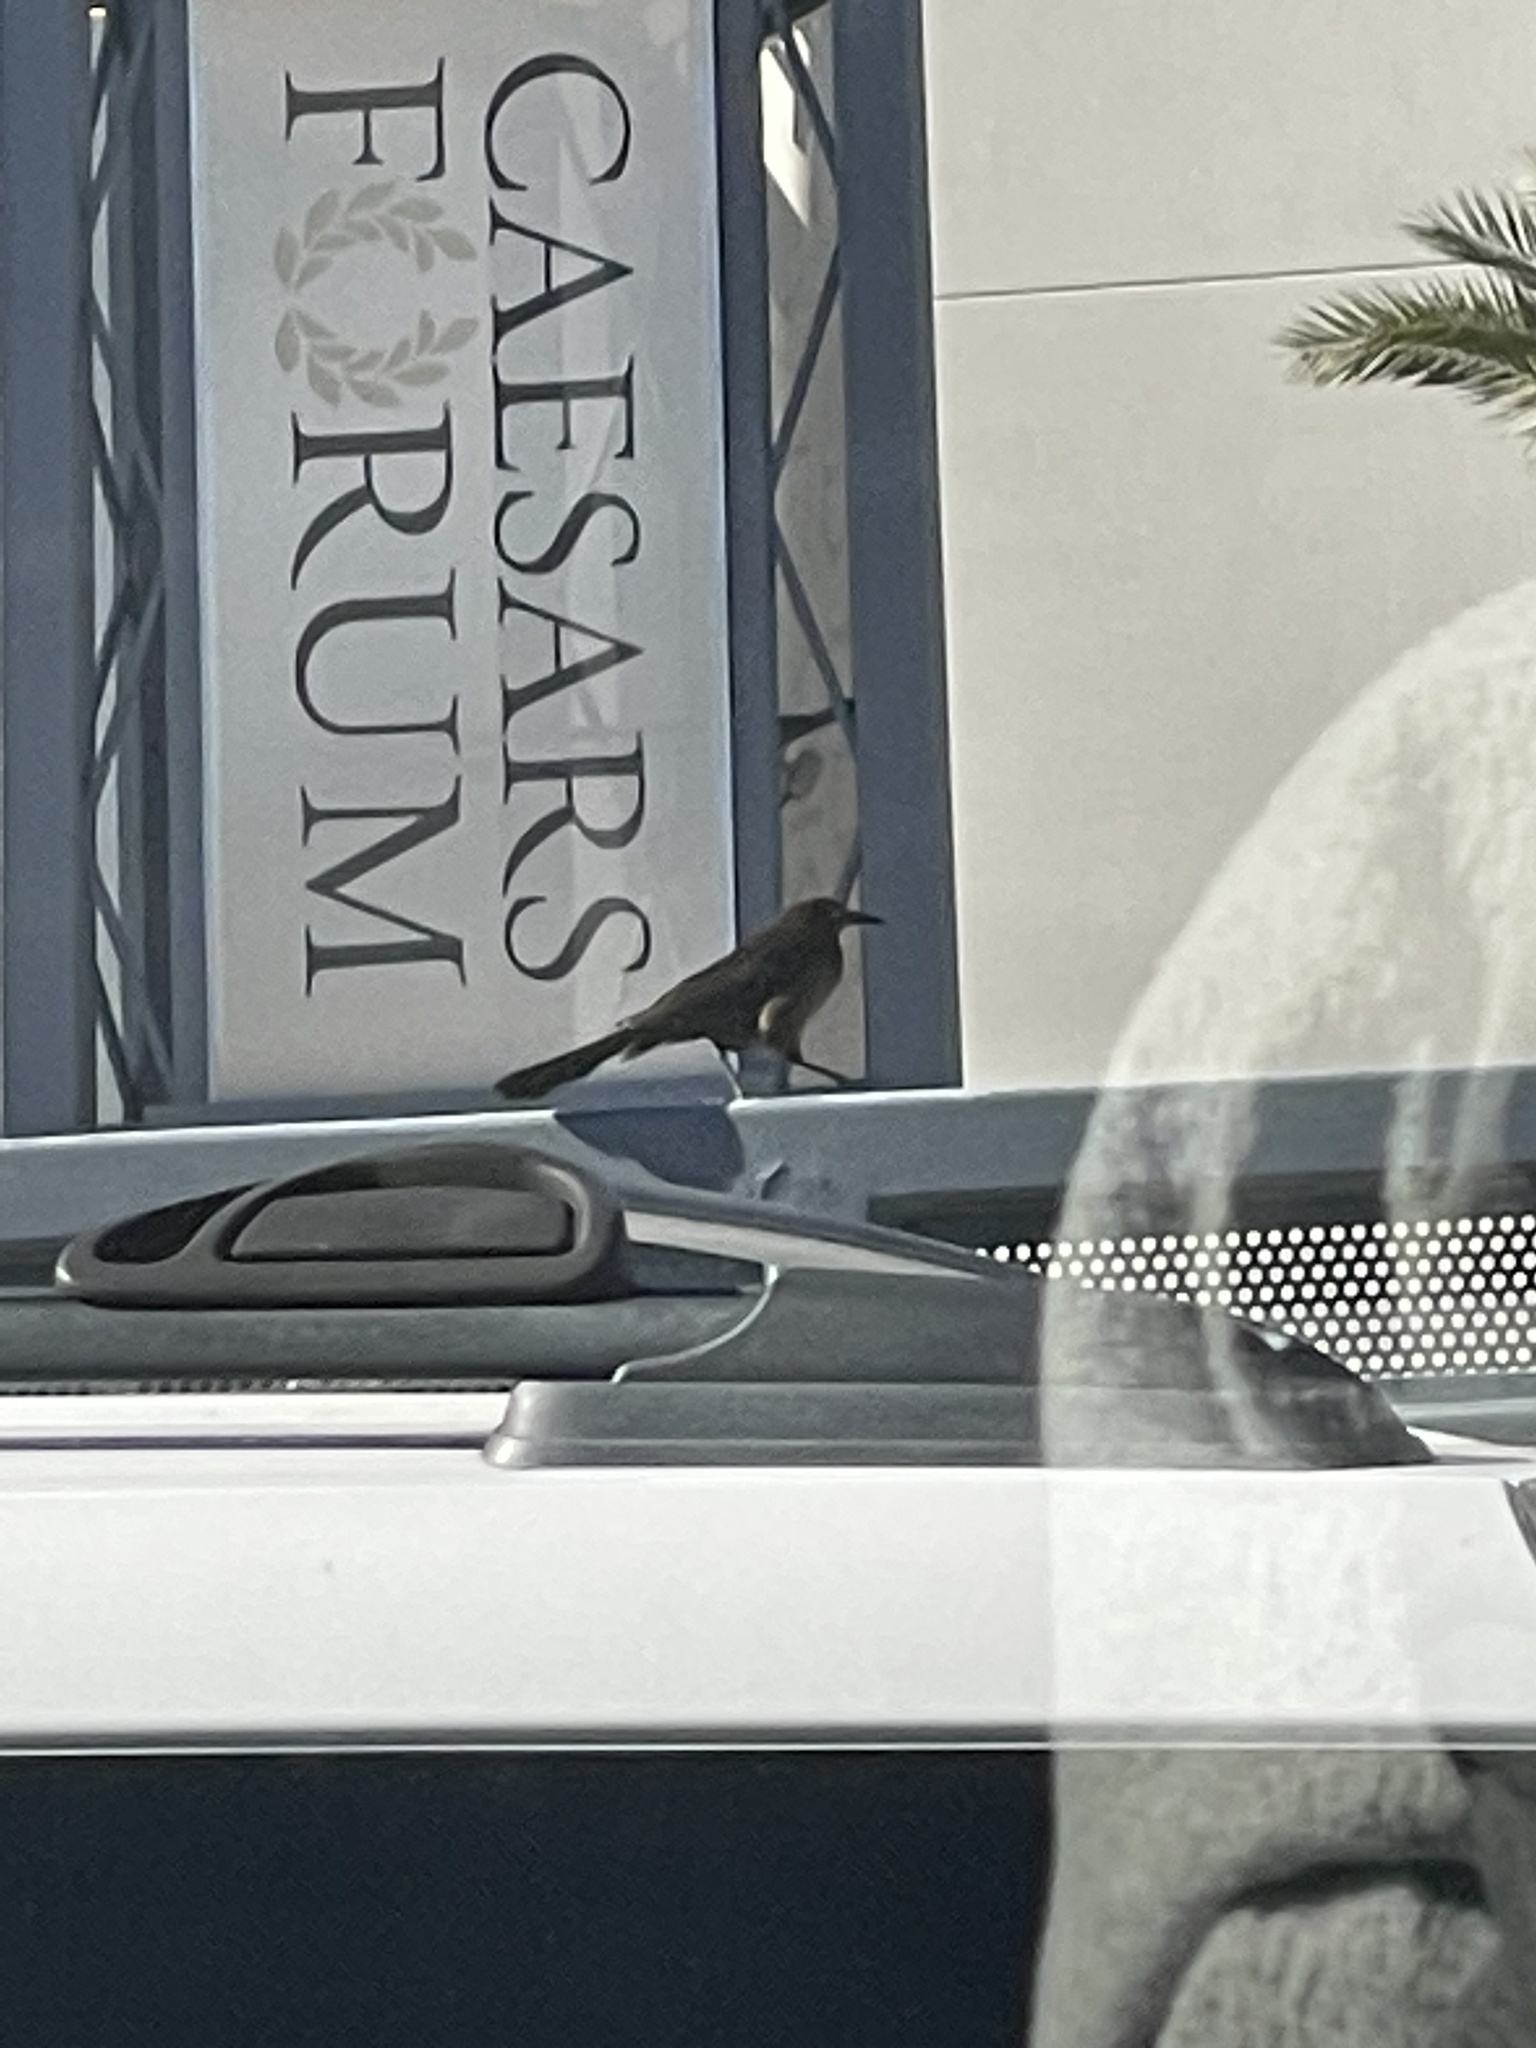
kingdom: Animalia
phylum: Chordata
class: Aves
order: Passeriformes
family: Icteridae
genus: Quiscalus
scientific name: Quiscalus mexicanus
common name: Great-tailed grackle
